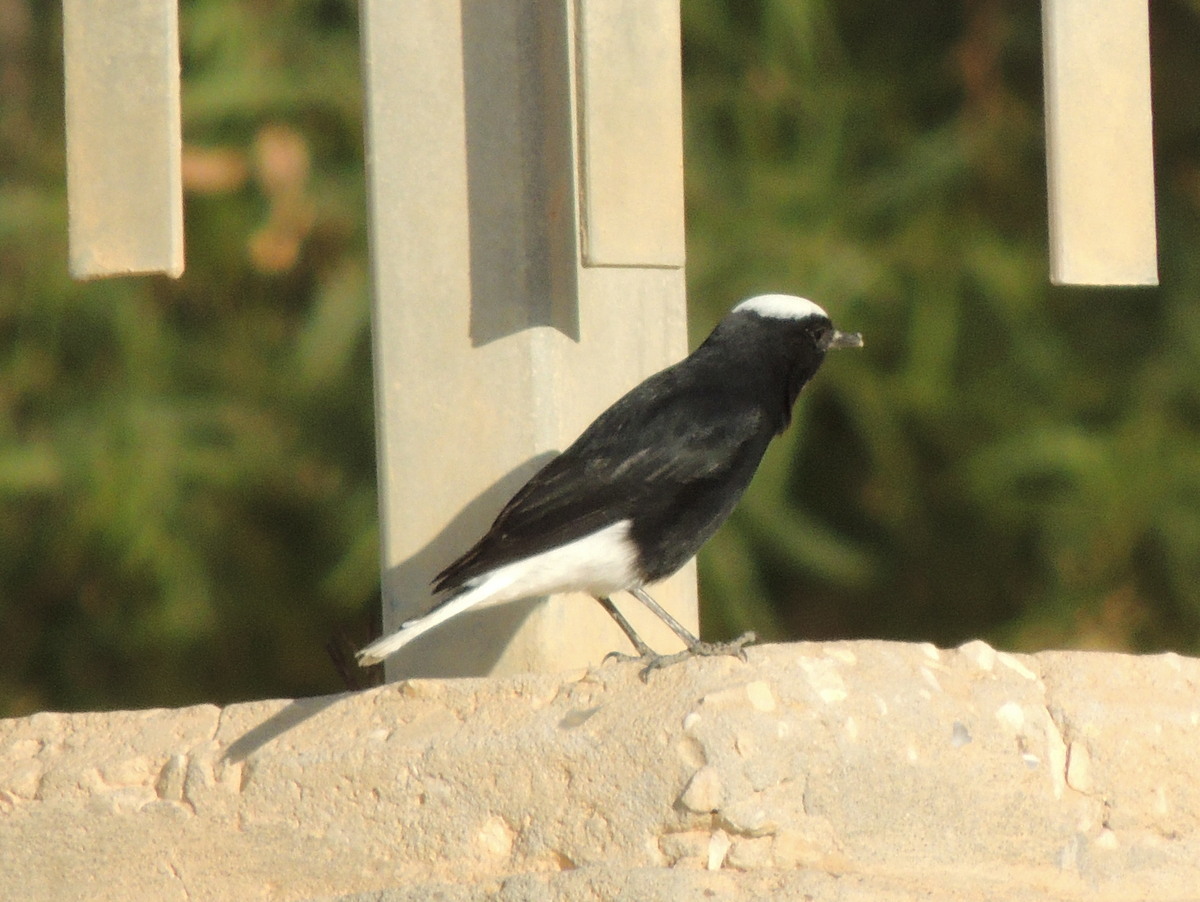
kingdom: Animalia
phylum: Chordata
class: Aves
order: Passeriformes
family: Muscicapidae
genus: Oenanthe
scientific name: Oenanthe leucopyga
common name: White-crowned wheatear
